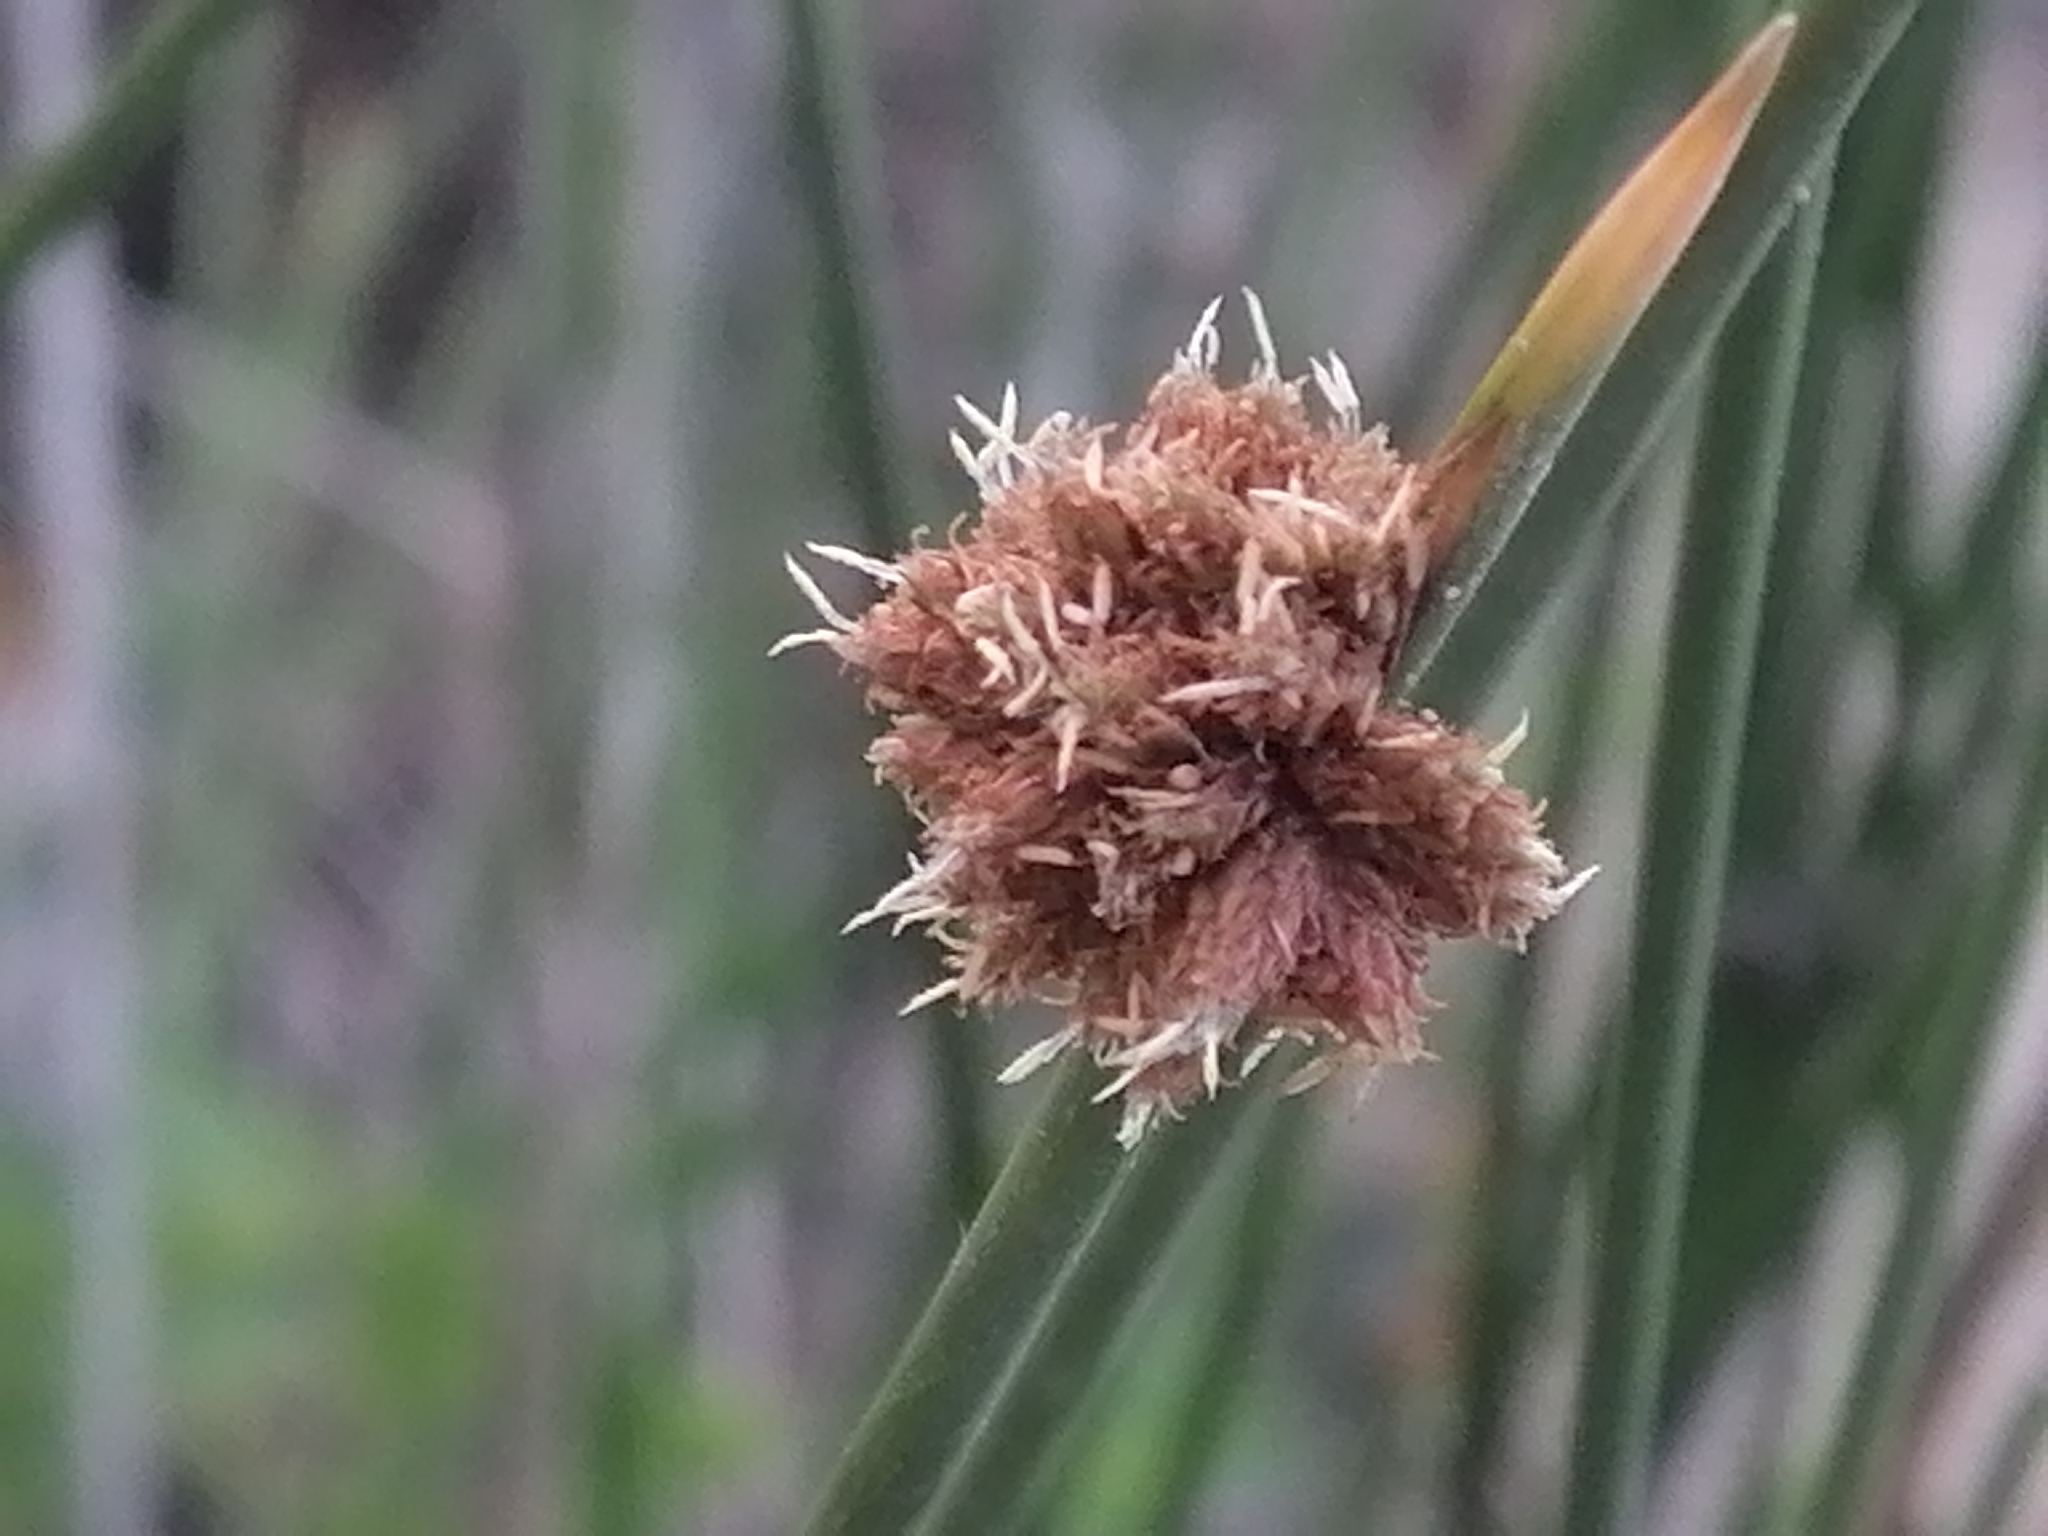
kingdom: Plantae
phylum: Tracheophyta
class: Liliopsida
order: Poales
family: Cyperaceae
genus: Ficinia
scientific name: Ficinia nodosa
